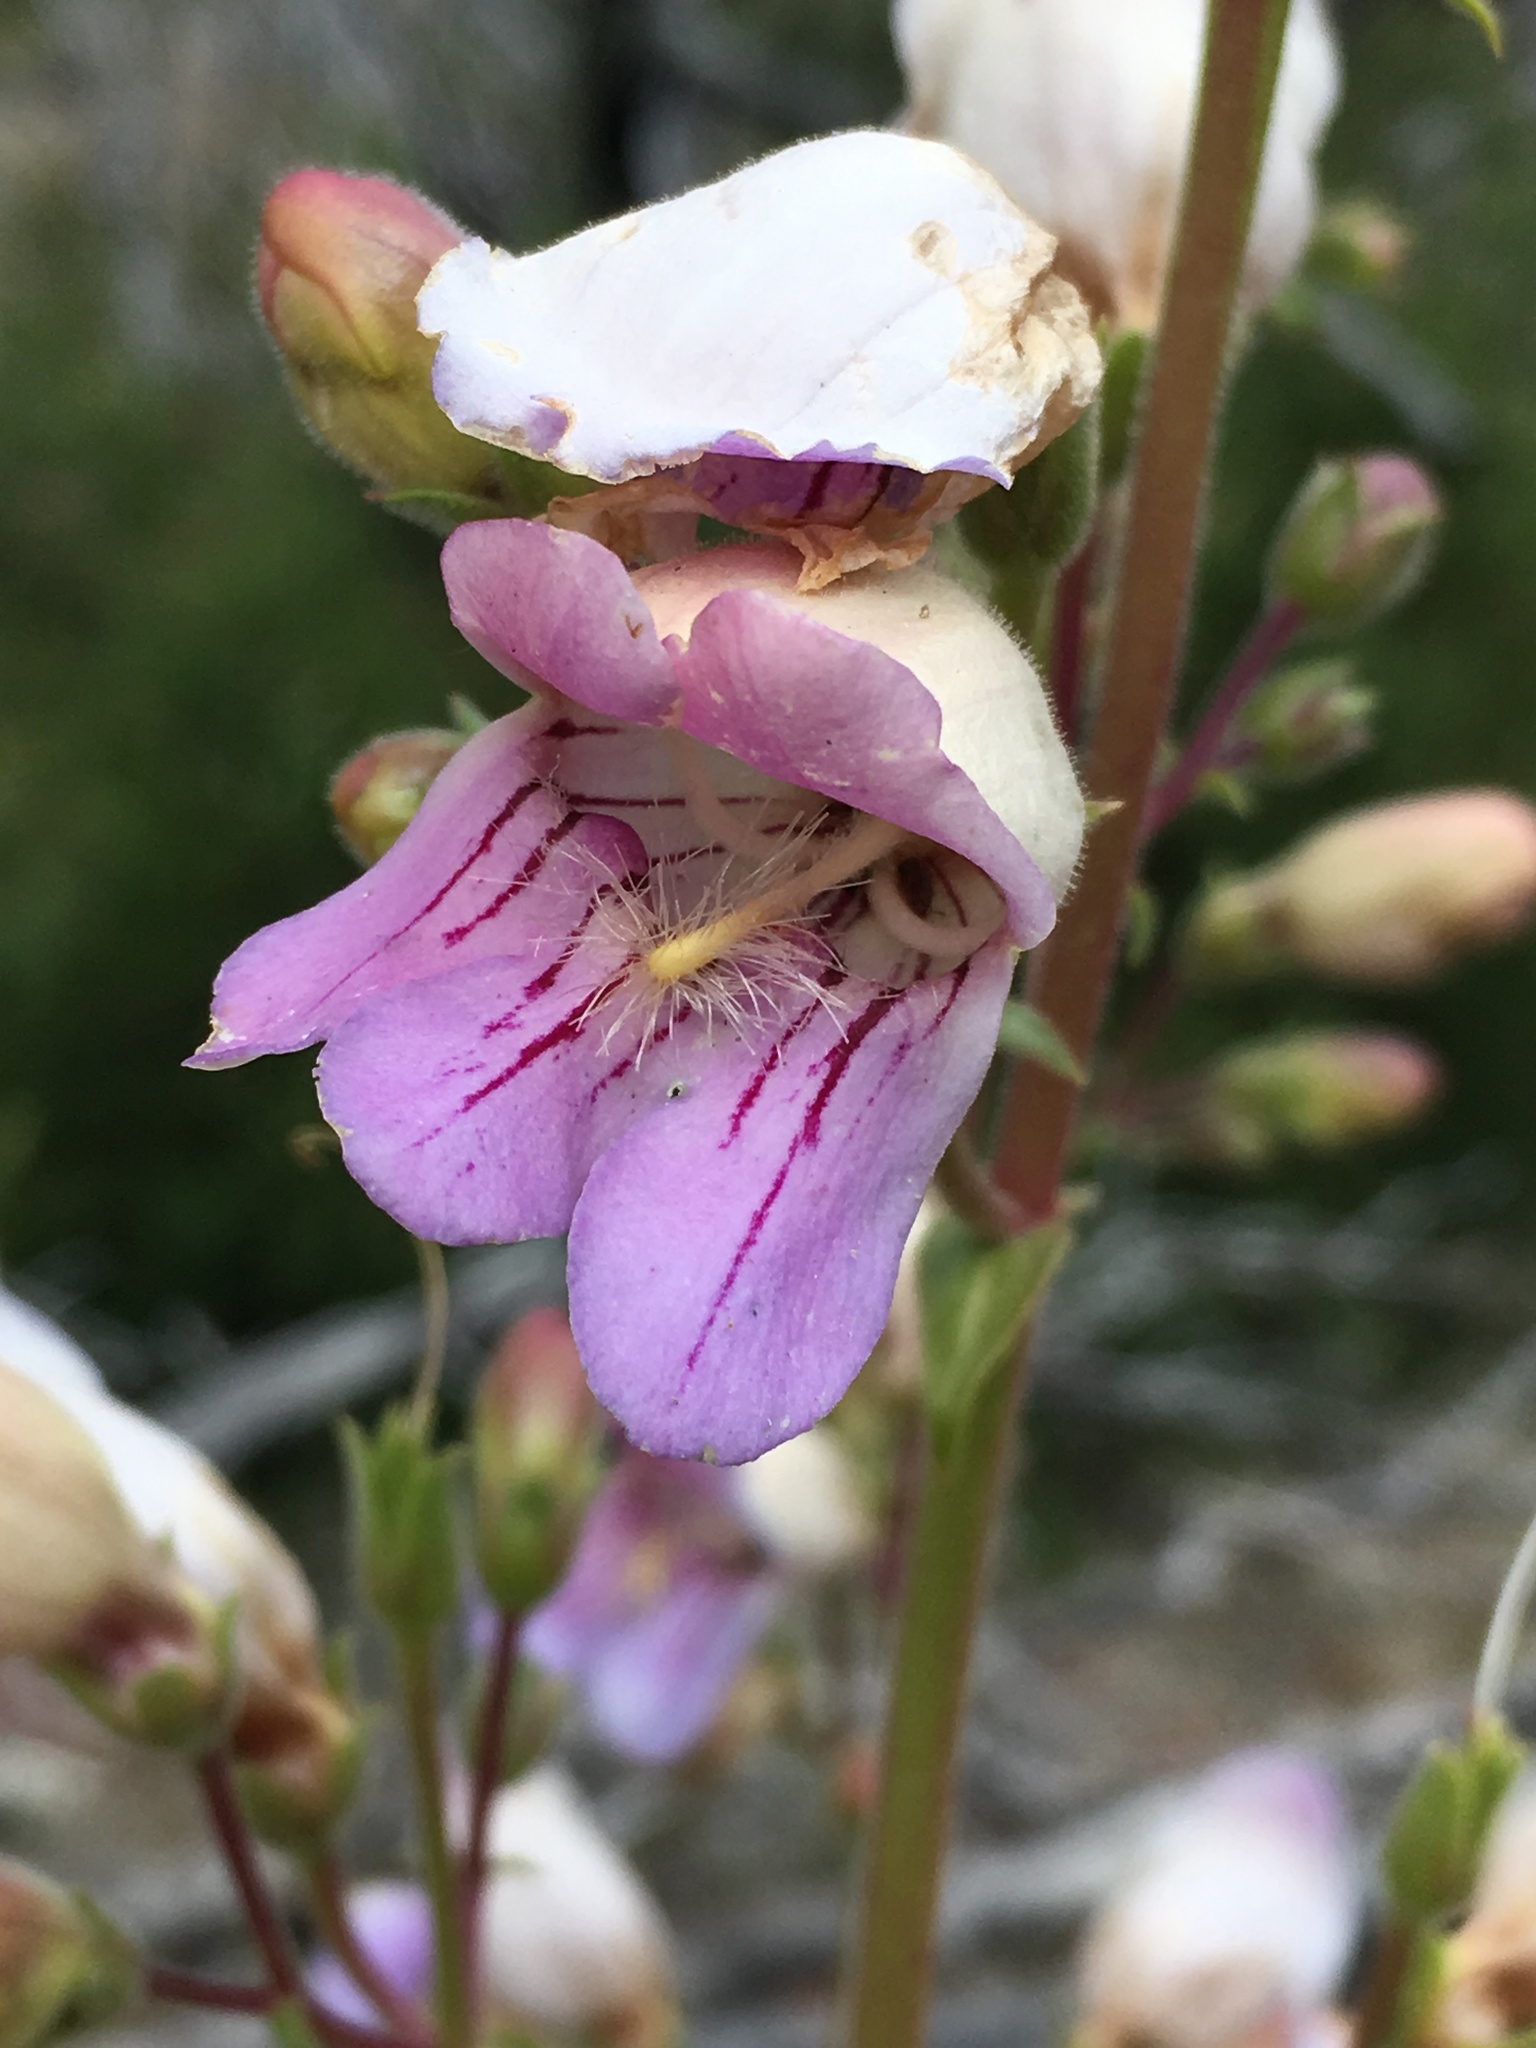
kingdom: Plantae
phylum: Tracheophyta
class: Magnoliopsida
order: Lamiales
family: Plantaginaceae
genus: Penstemon
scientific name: Penstemon grinnellii
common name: Grinnell's beardtongue
